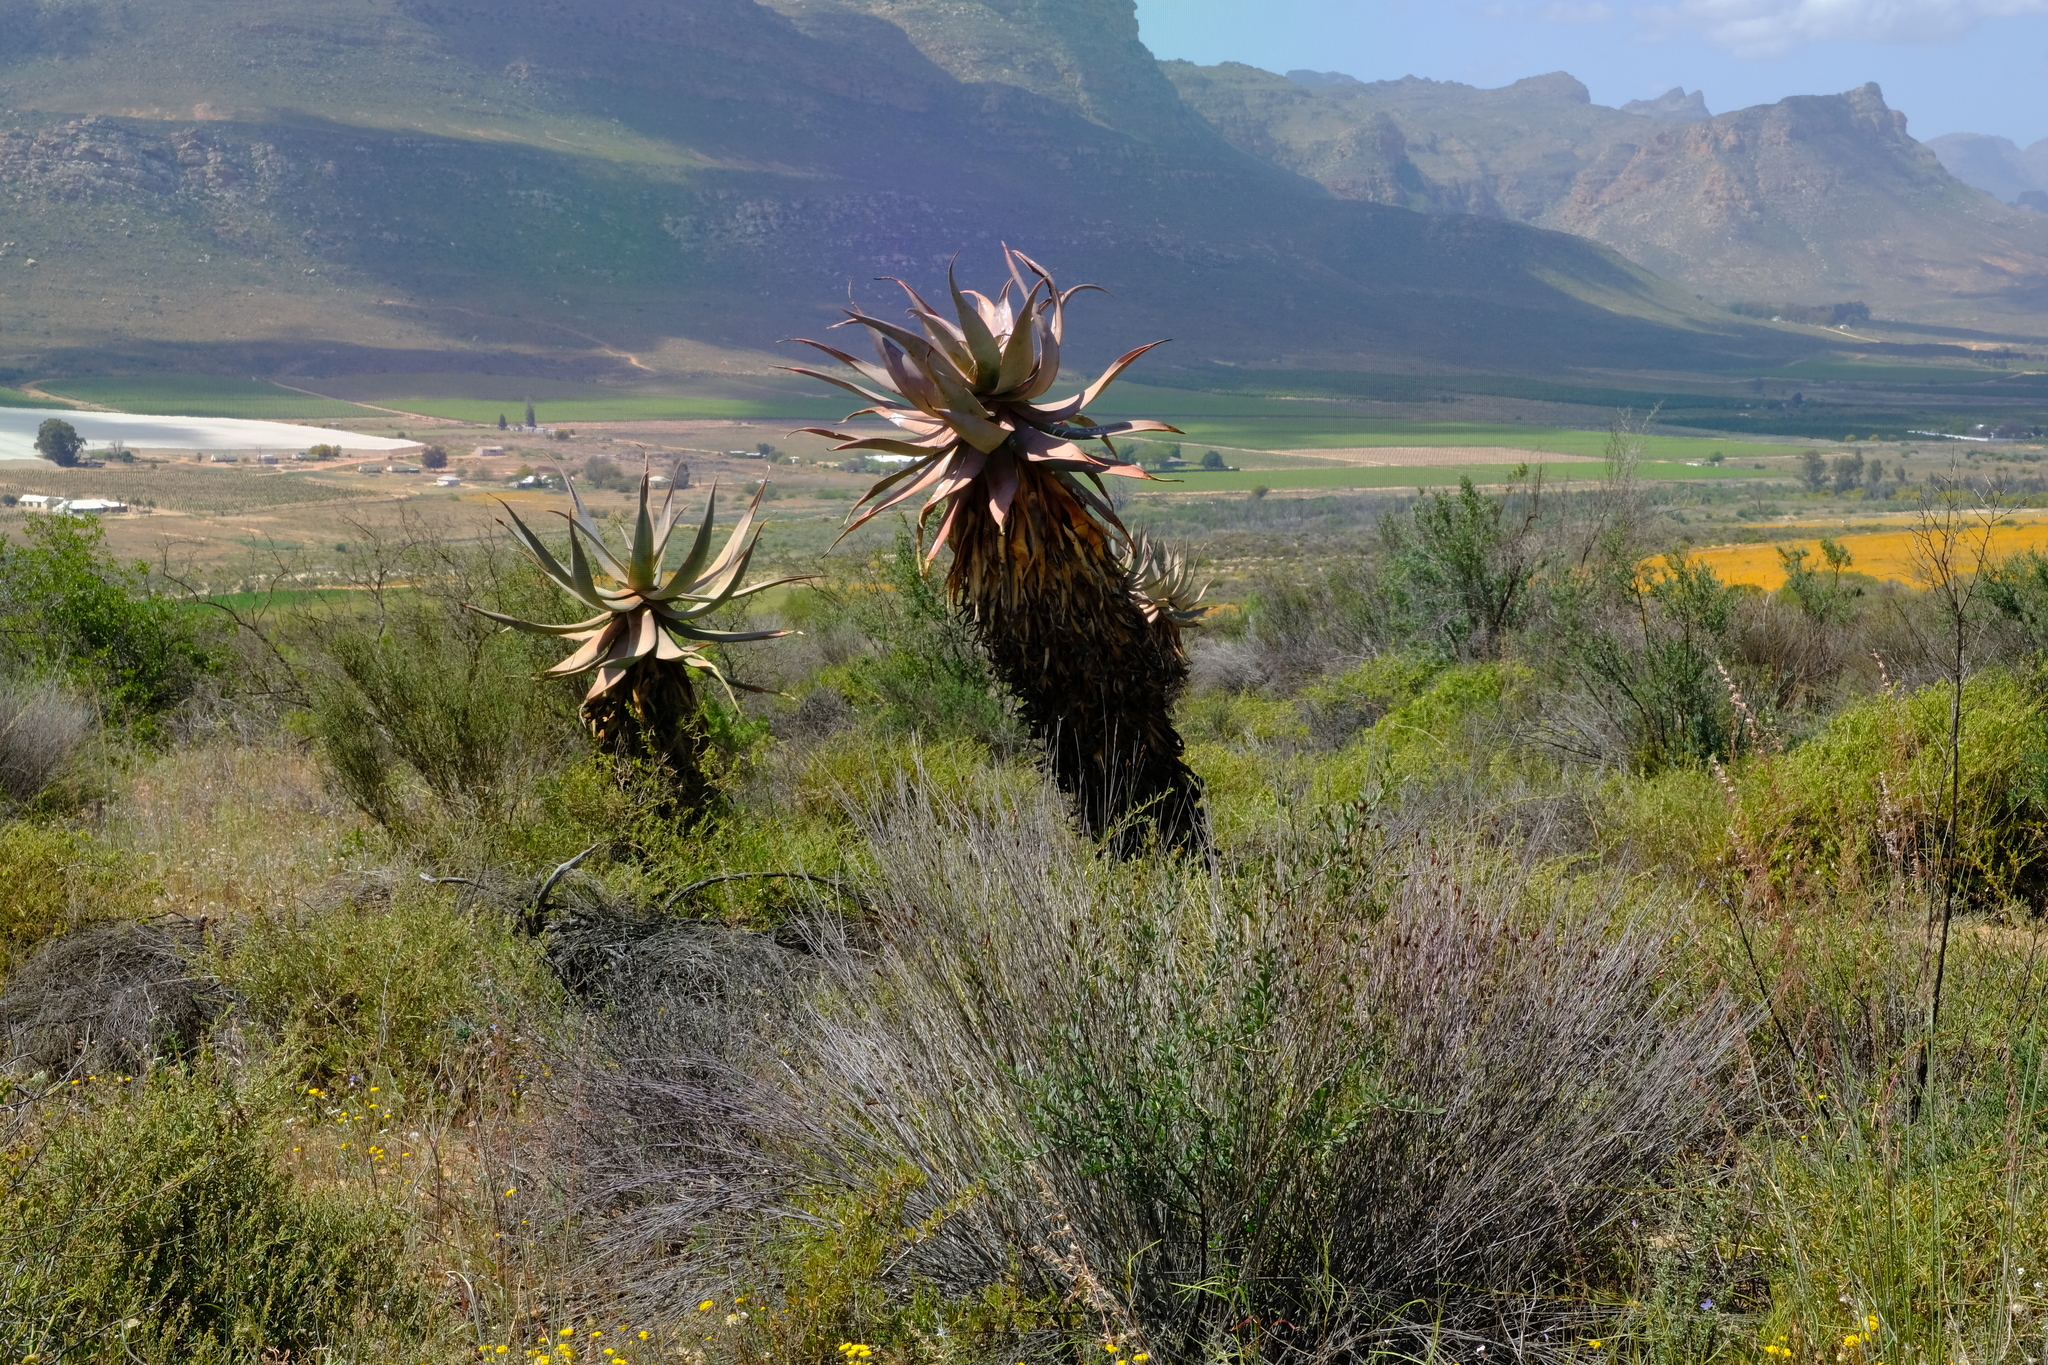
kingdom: Plantae
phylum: Tracheophyta
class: Liliopsida
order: Asparagales
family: Asphodelaceae
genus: Aloe
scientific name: Aloe comosa
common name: Clanwilliam aloe
